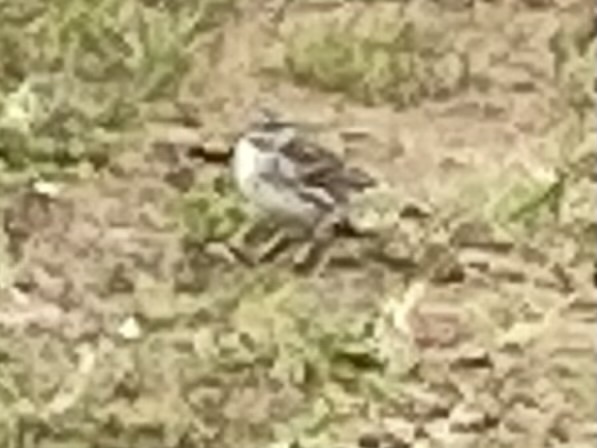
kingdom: Animalia
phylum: Chordata
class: Aves
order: Passeriformes
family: Motacillidae
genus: Anthus
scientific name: Anthus novaeseelandiae
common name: New zealand pipit
